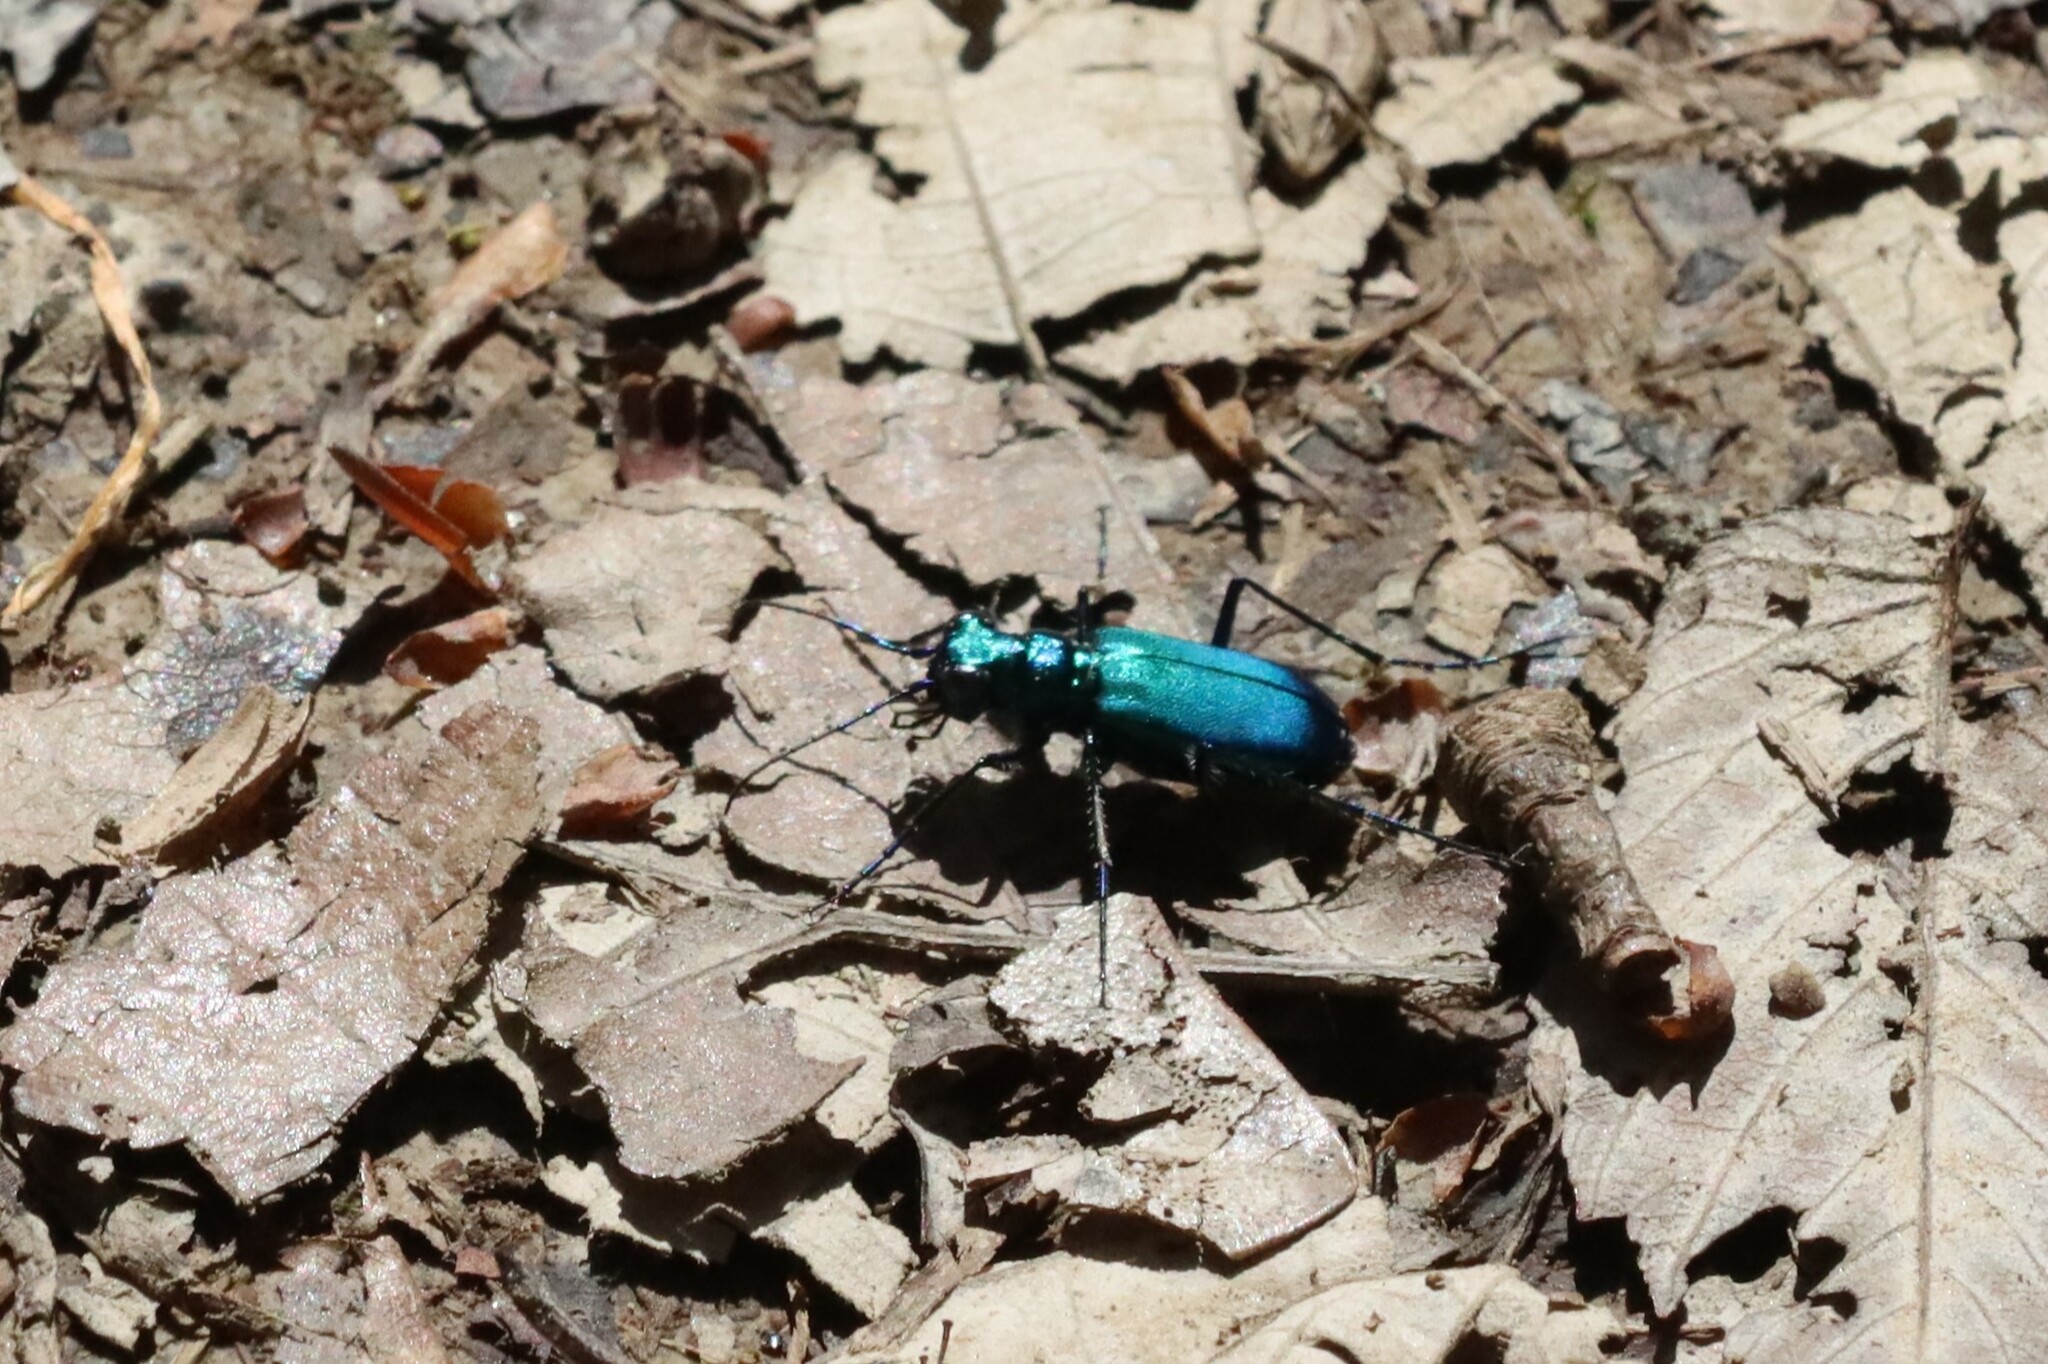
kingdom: Animalia
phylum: Arthropoda
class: Insecta
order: Coleoptera
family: Carabidae
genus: Cicindela
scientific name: Cicindela sexguttata
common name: Six-spotted tiger beetle
